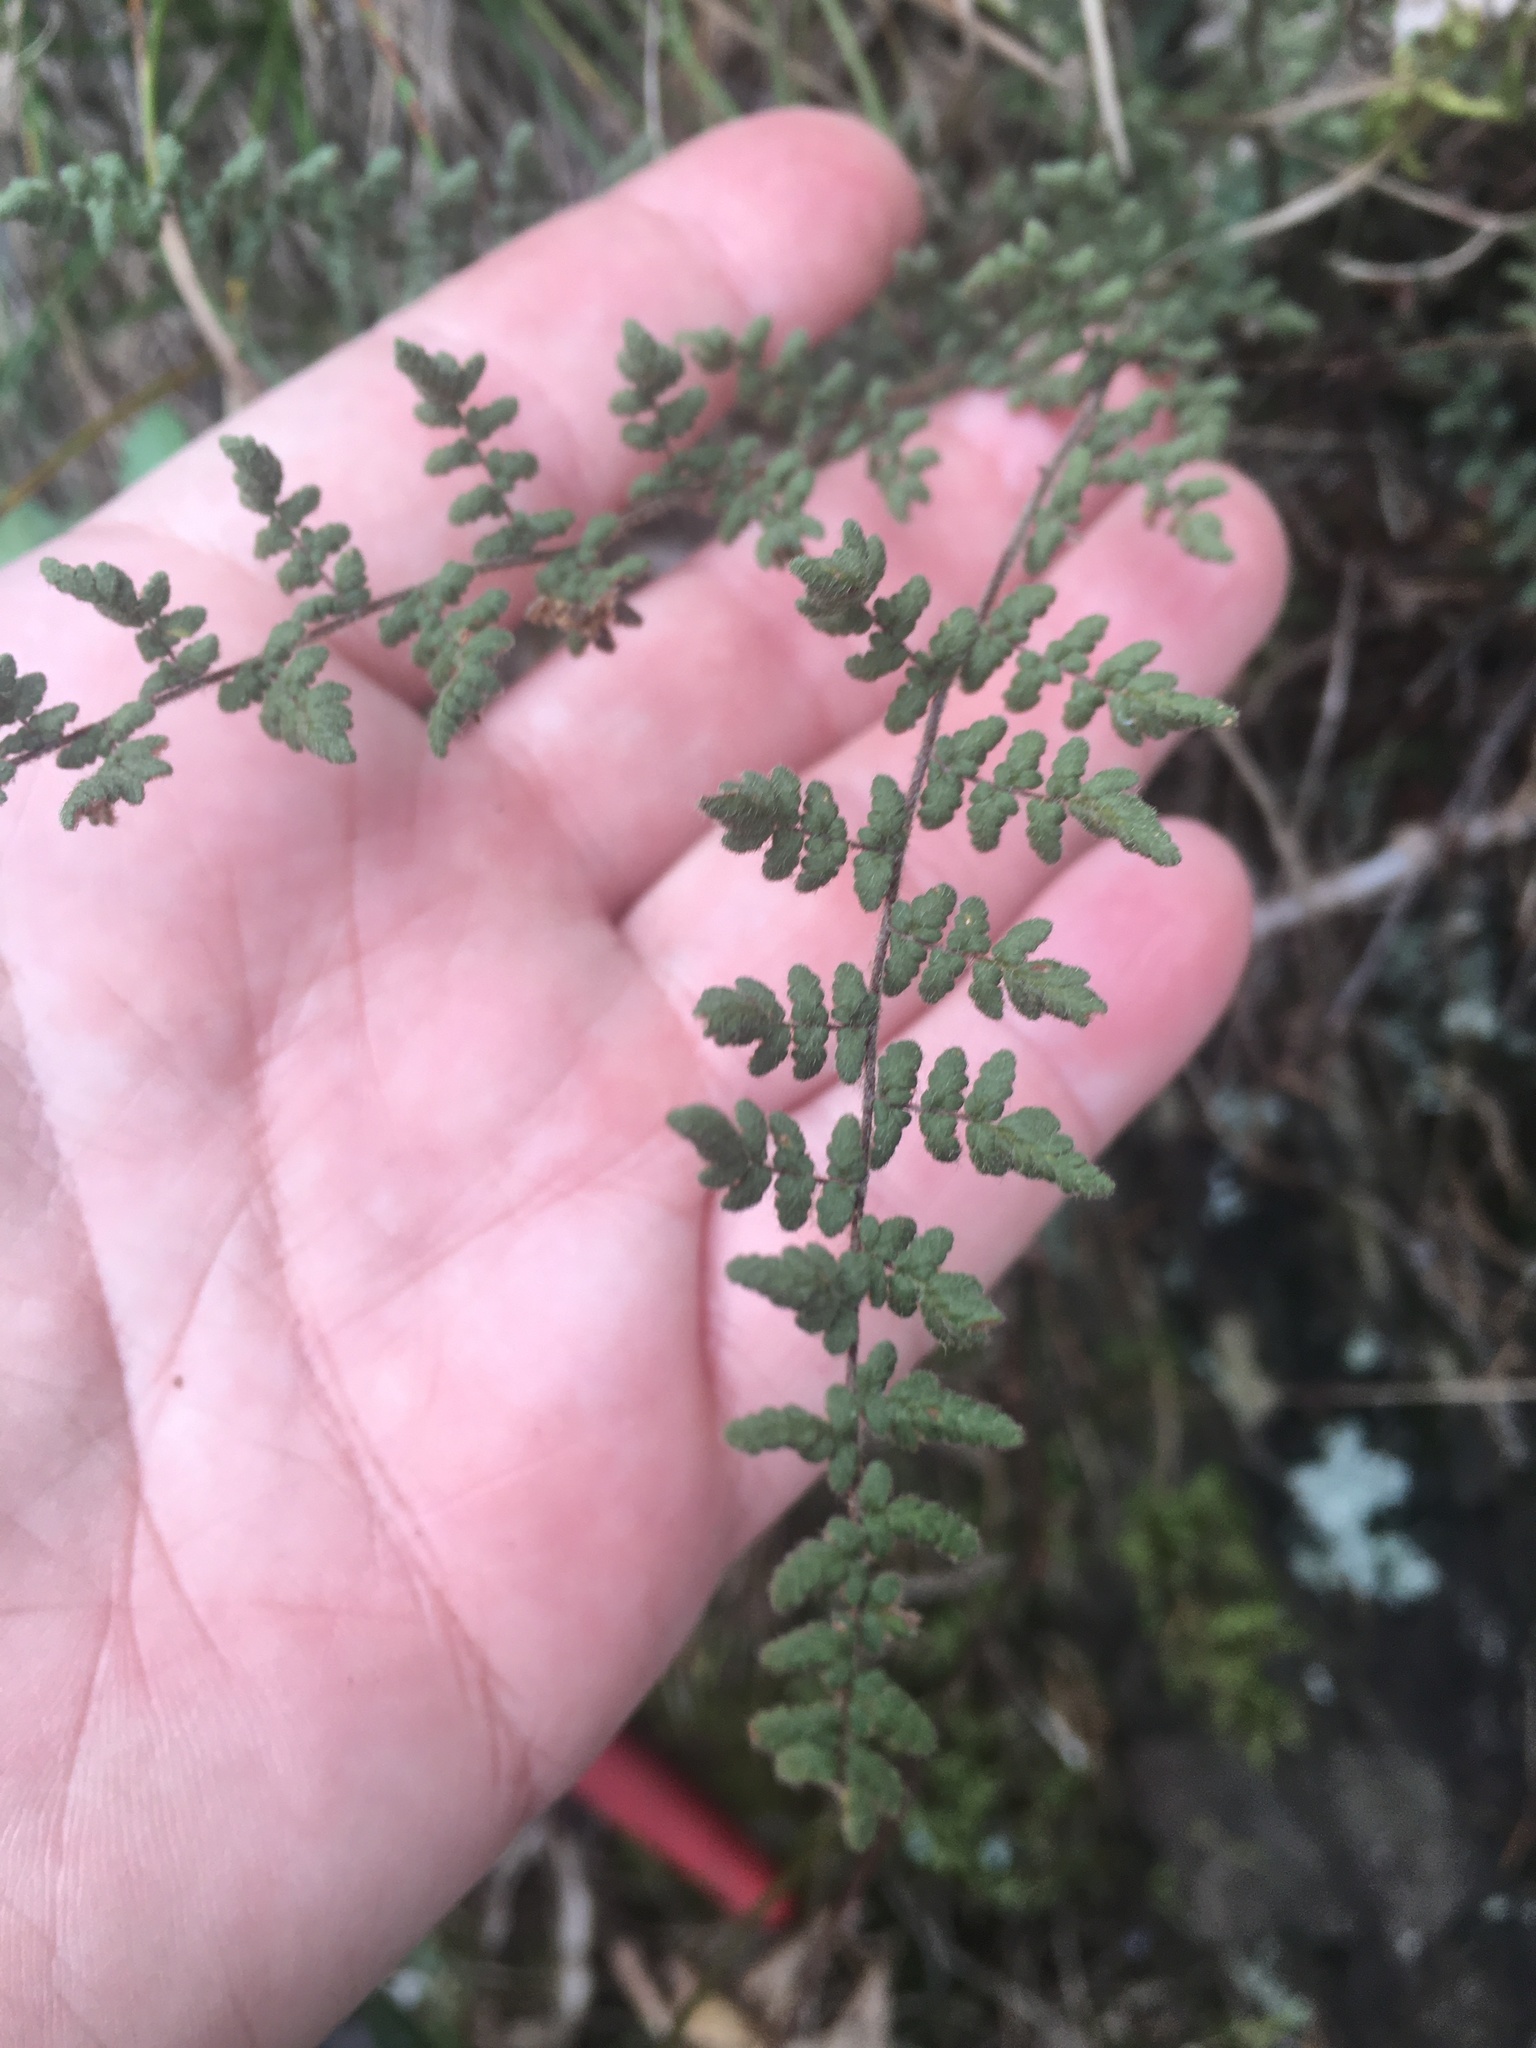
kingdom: Plantae
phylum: Tracheophyta
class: Polypodiopsida
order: Polypodiales
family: Pteridaceae
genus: Myriopteris
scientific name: Myriopteris lanosa
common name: Hairy lip fern
